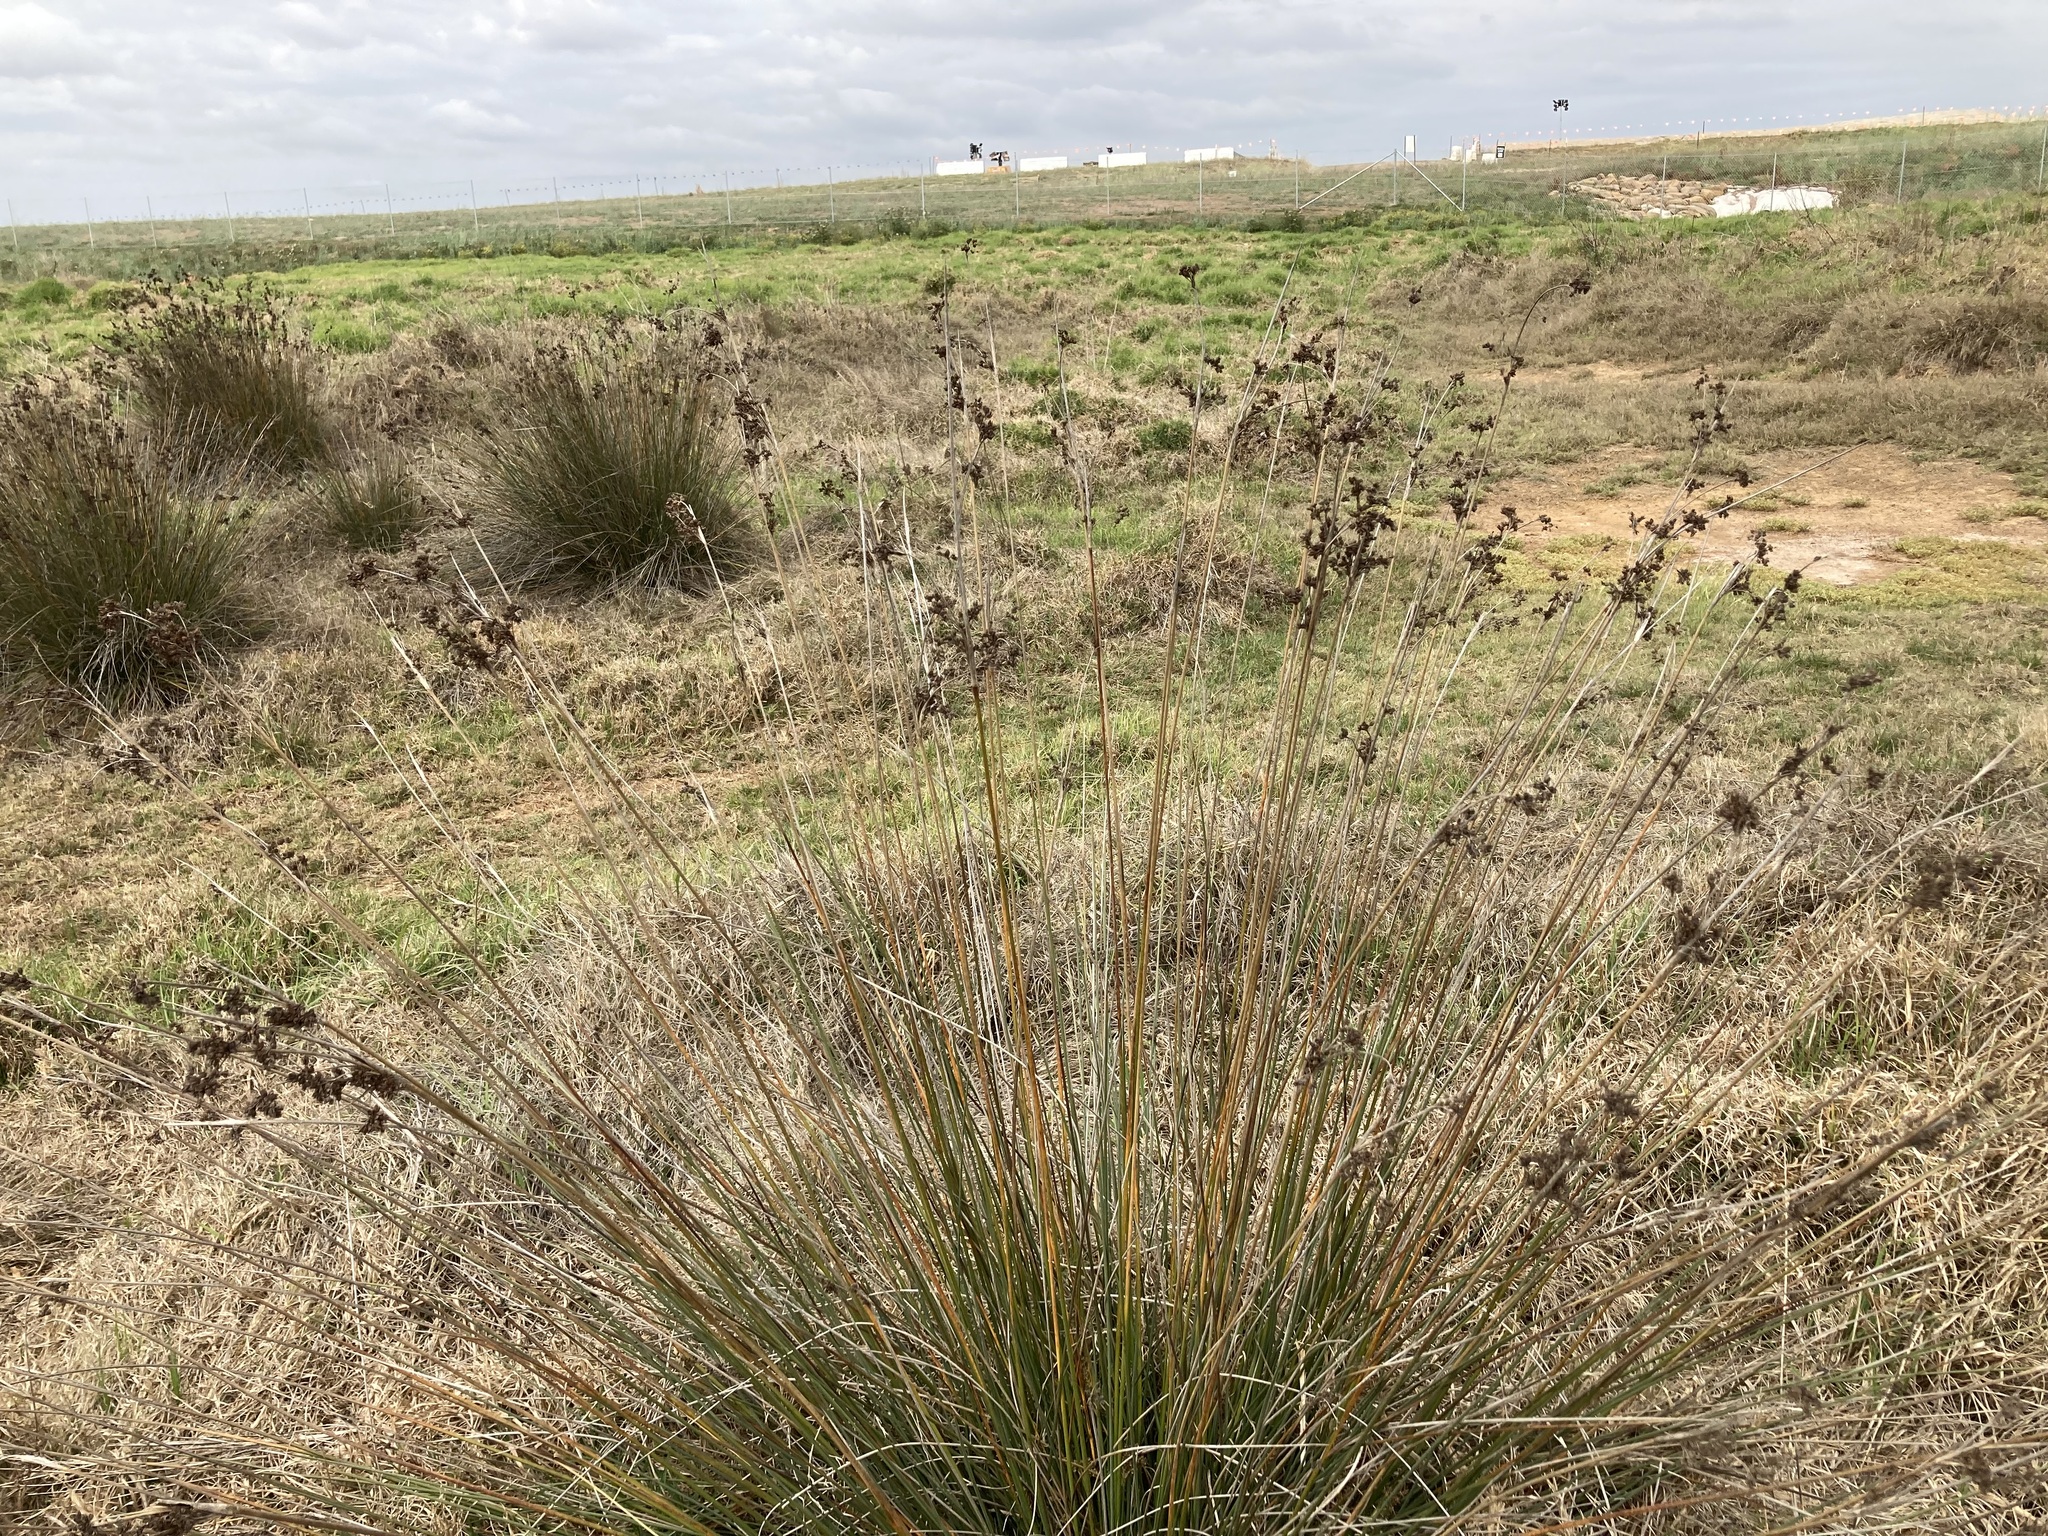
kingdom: Plantae
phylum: Tracheophyta
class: Liliopsida
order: Poales
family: Juncaceae
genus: Juncus
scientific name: Juncus acutus
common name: Sharp rush
